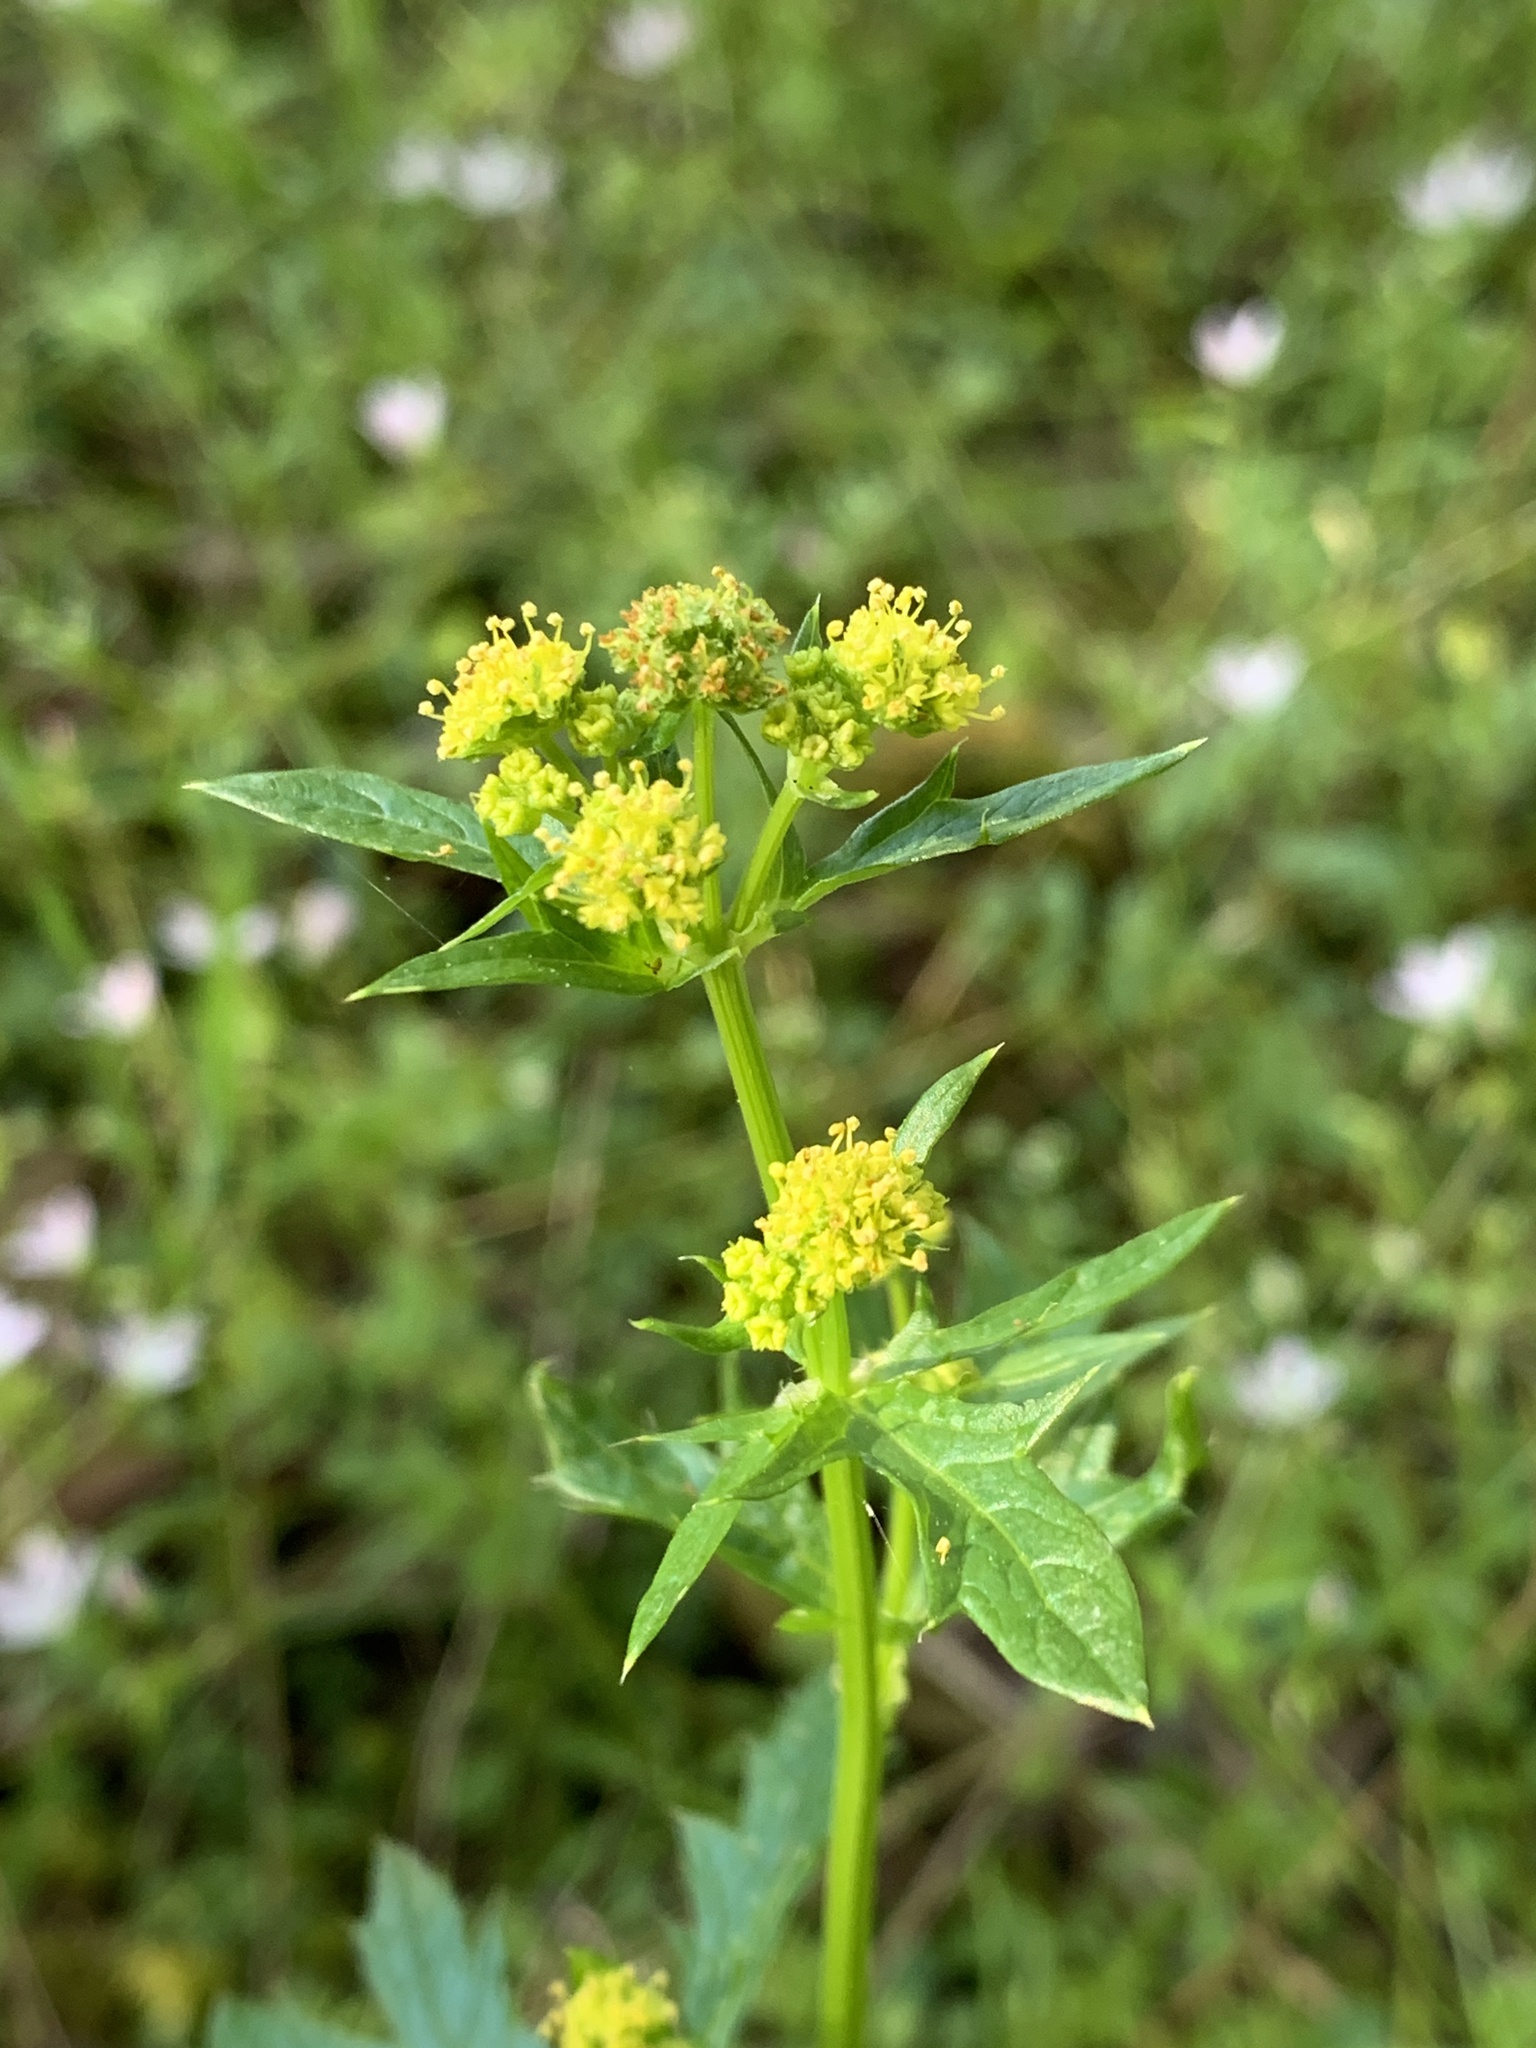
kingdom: Plantae
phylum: Tracheophyta
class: Magnoliopsida
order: Apiales
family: Apiaceae
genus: Sanicula
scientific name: Sanicula crassicaulis
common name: Western snakeroot
